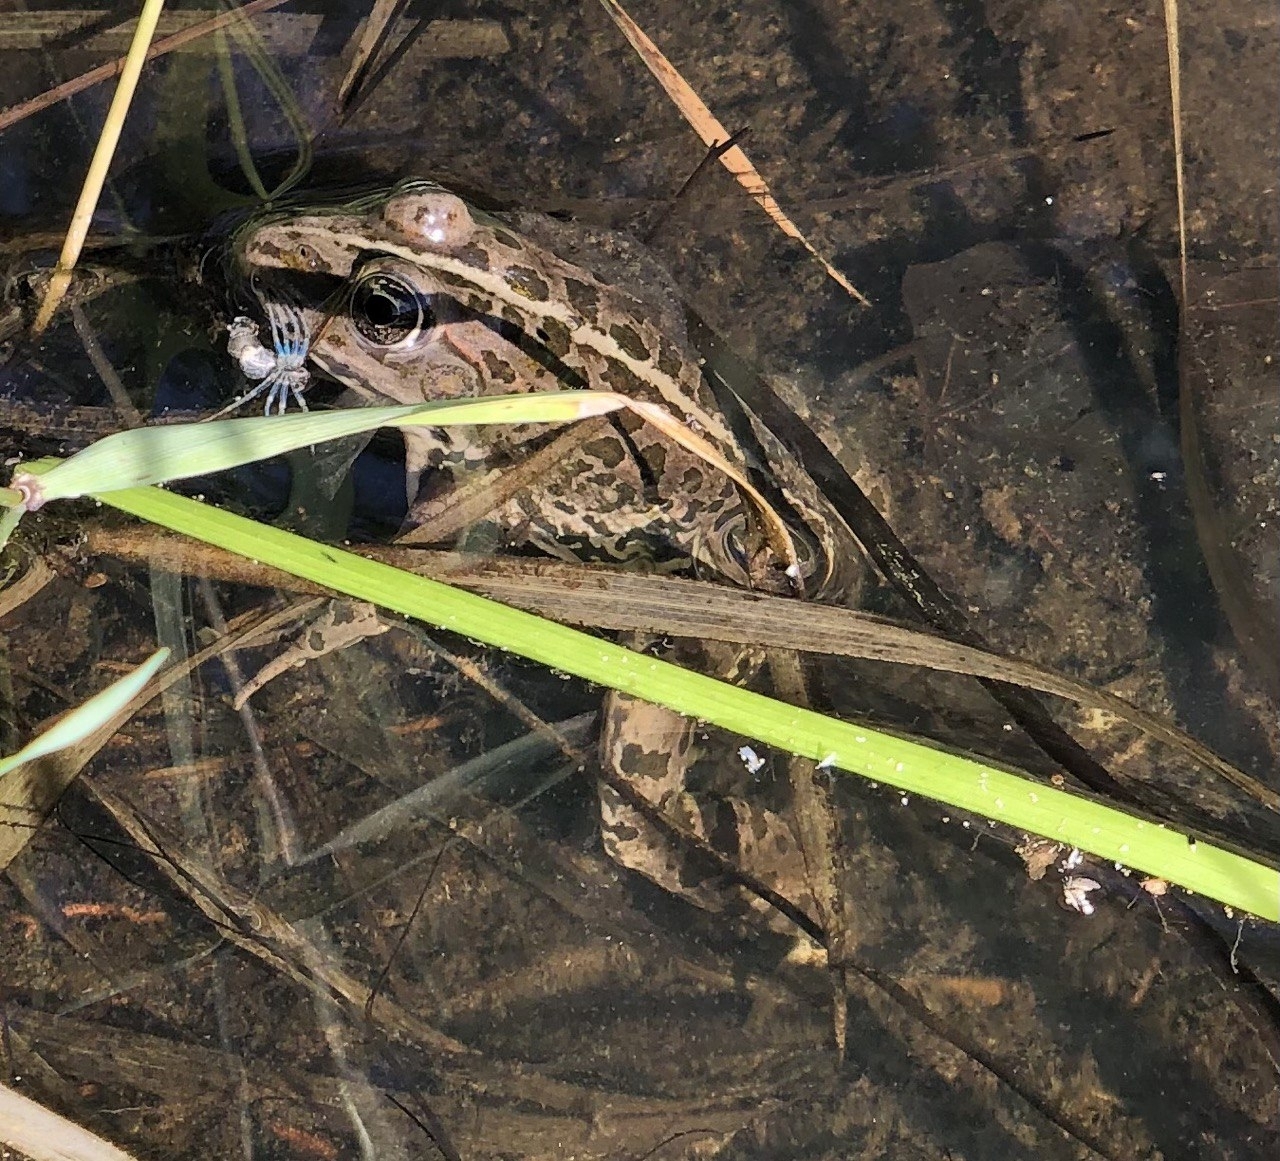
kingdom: Animalia
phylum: Chordata
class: Amphibia
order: Anura
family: Ranidae
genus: Pelophylax
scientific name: Pelophylax
